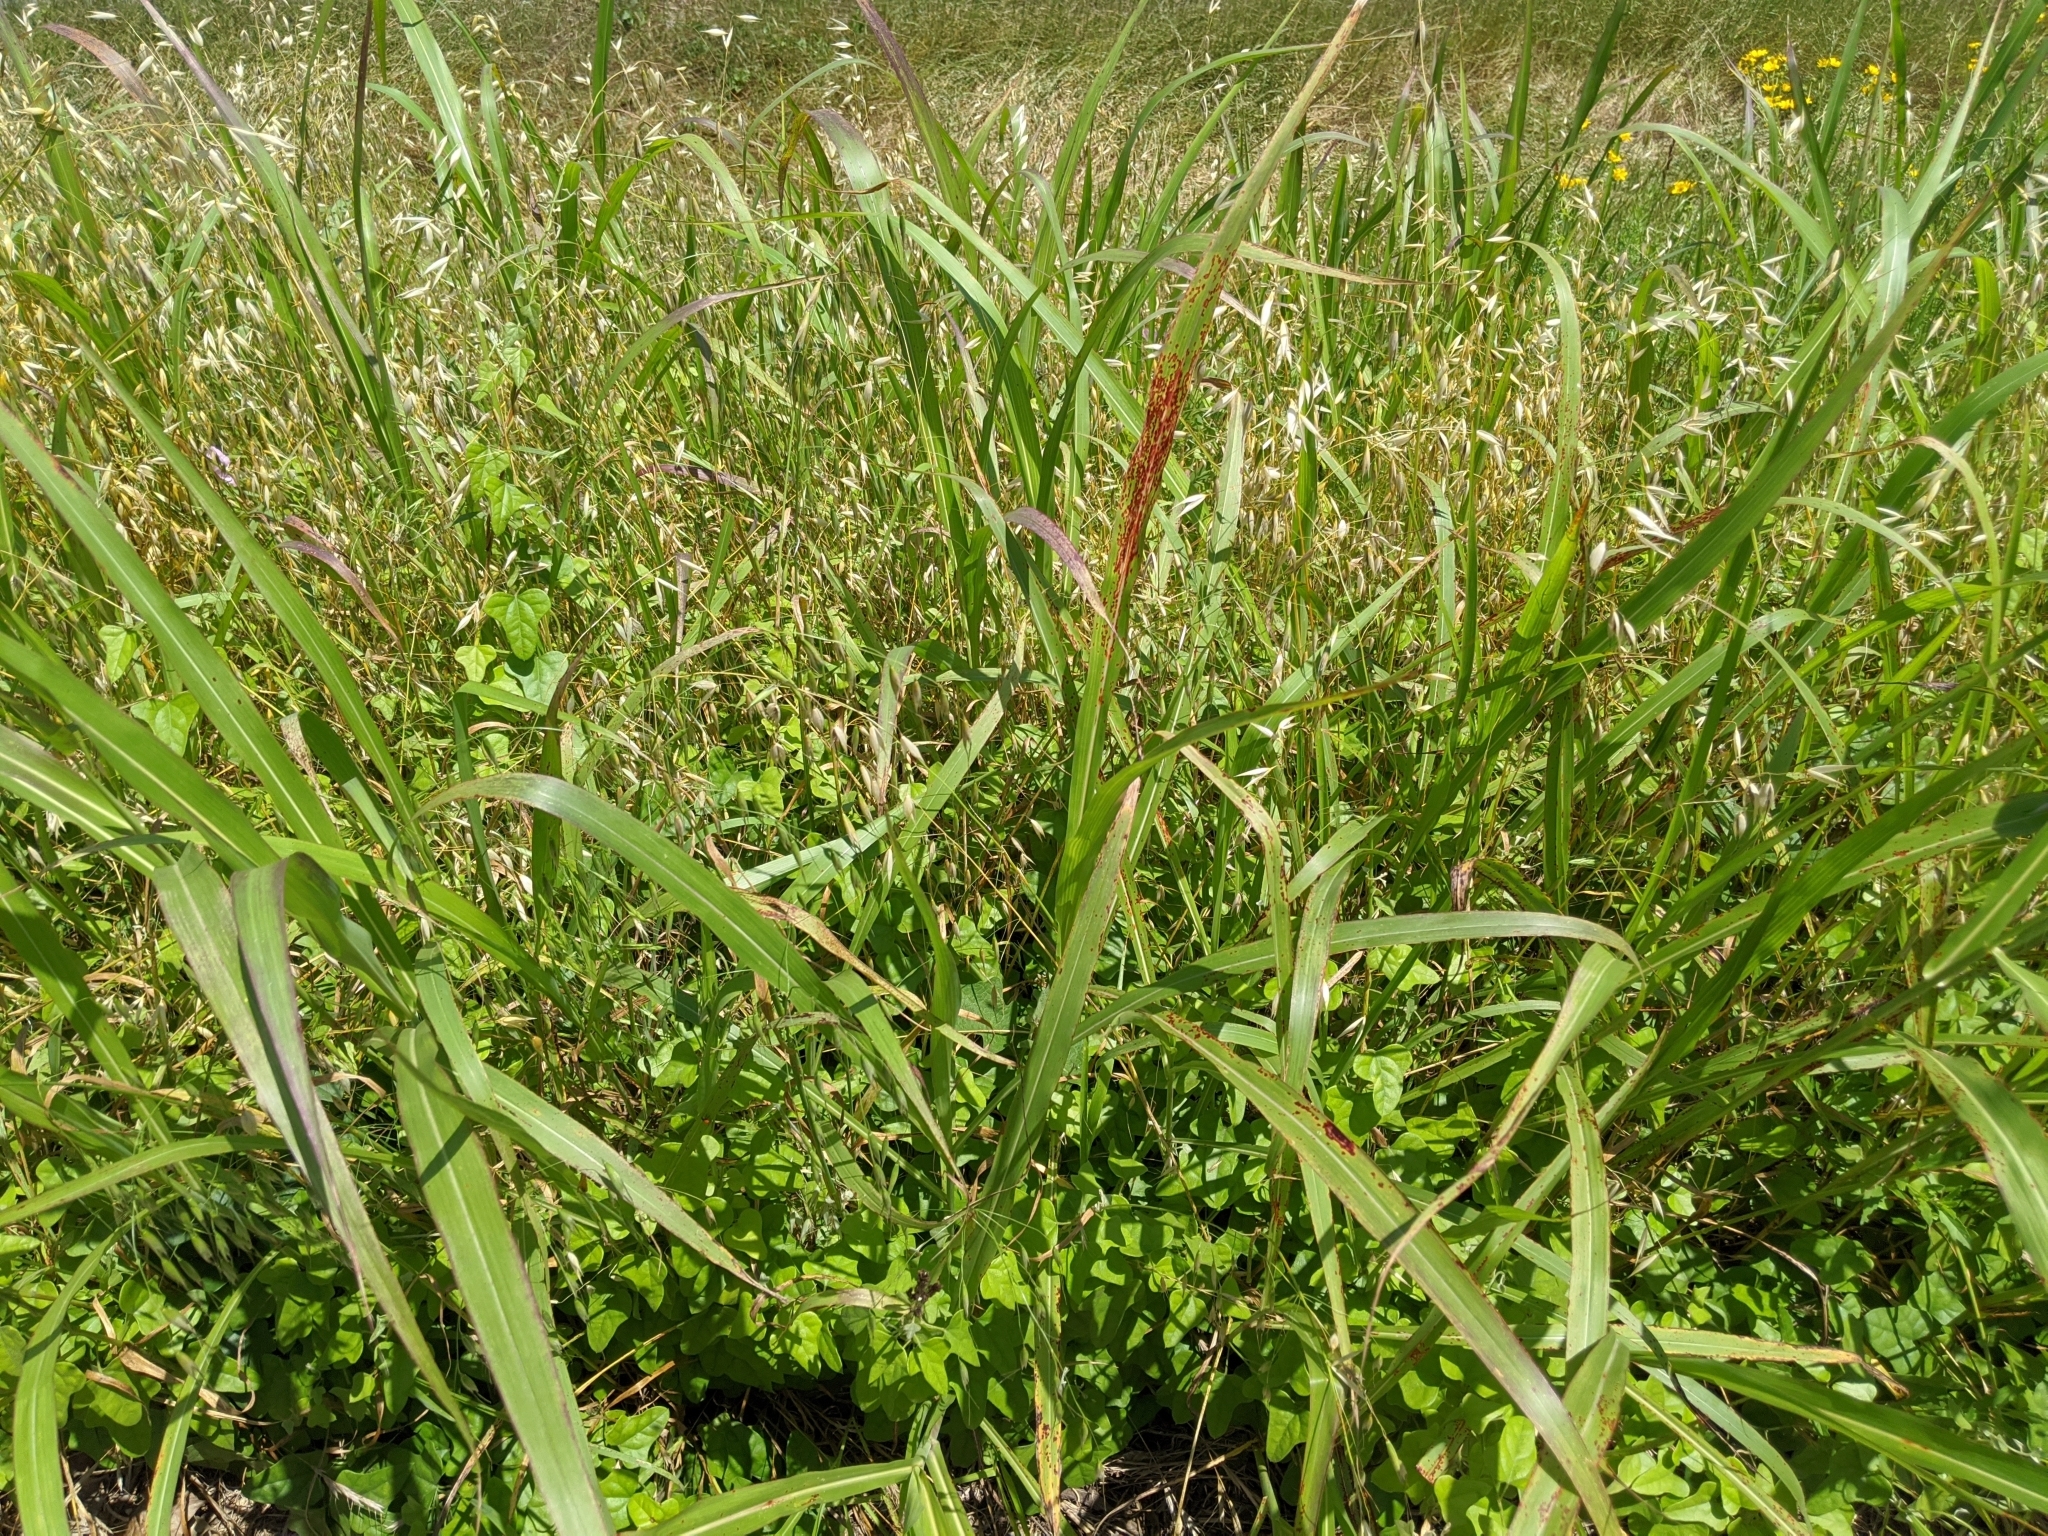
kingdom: Plantae
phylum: Tracheophyta
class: Liliopsida
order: Poales
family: Poaceae
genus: Sorghum
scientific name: Sorghum halepense
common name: Johnson-grass
